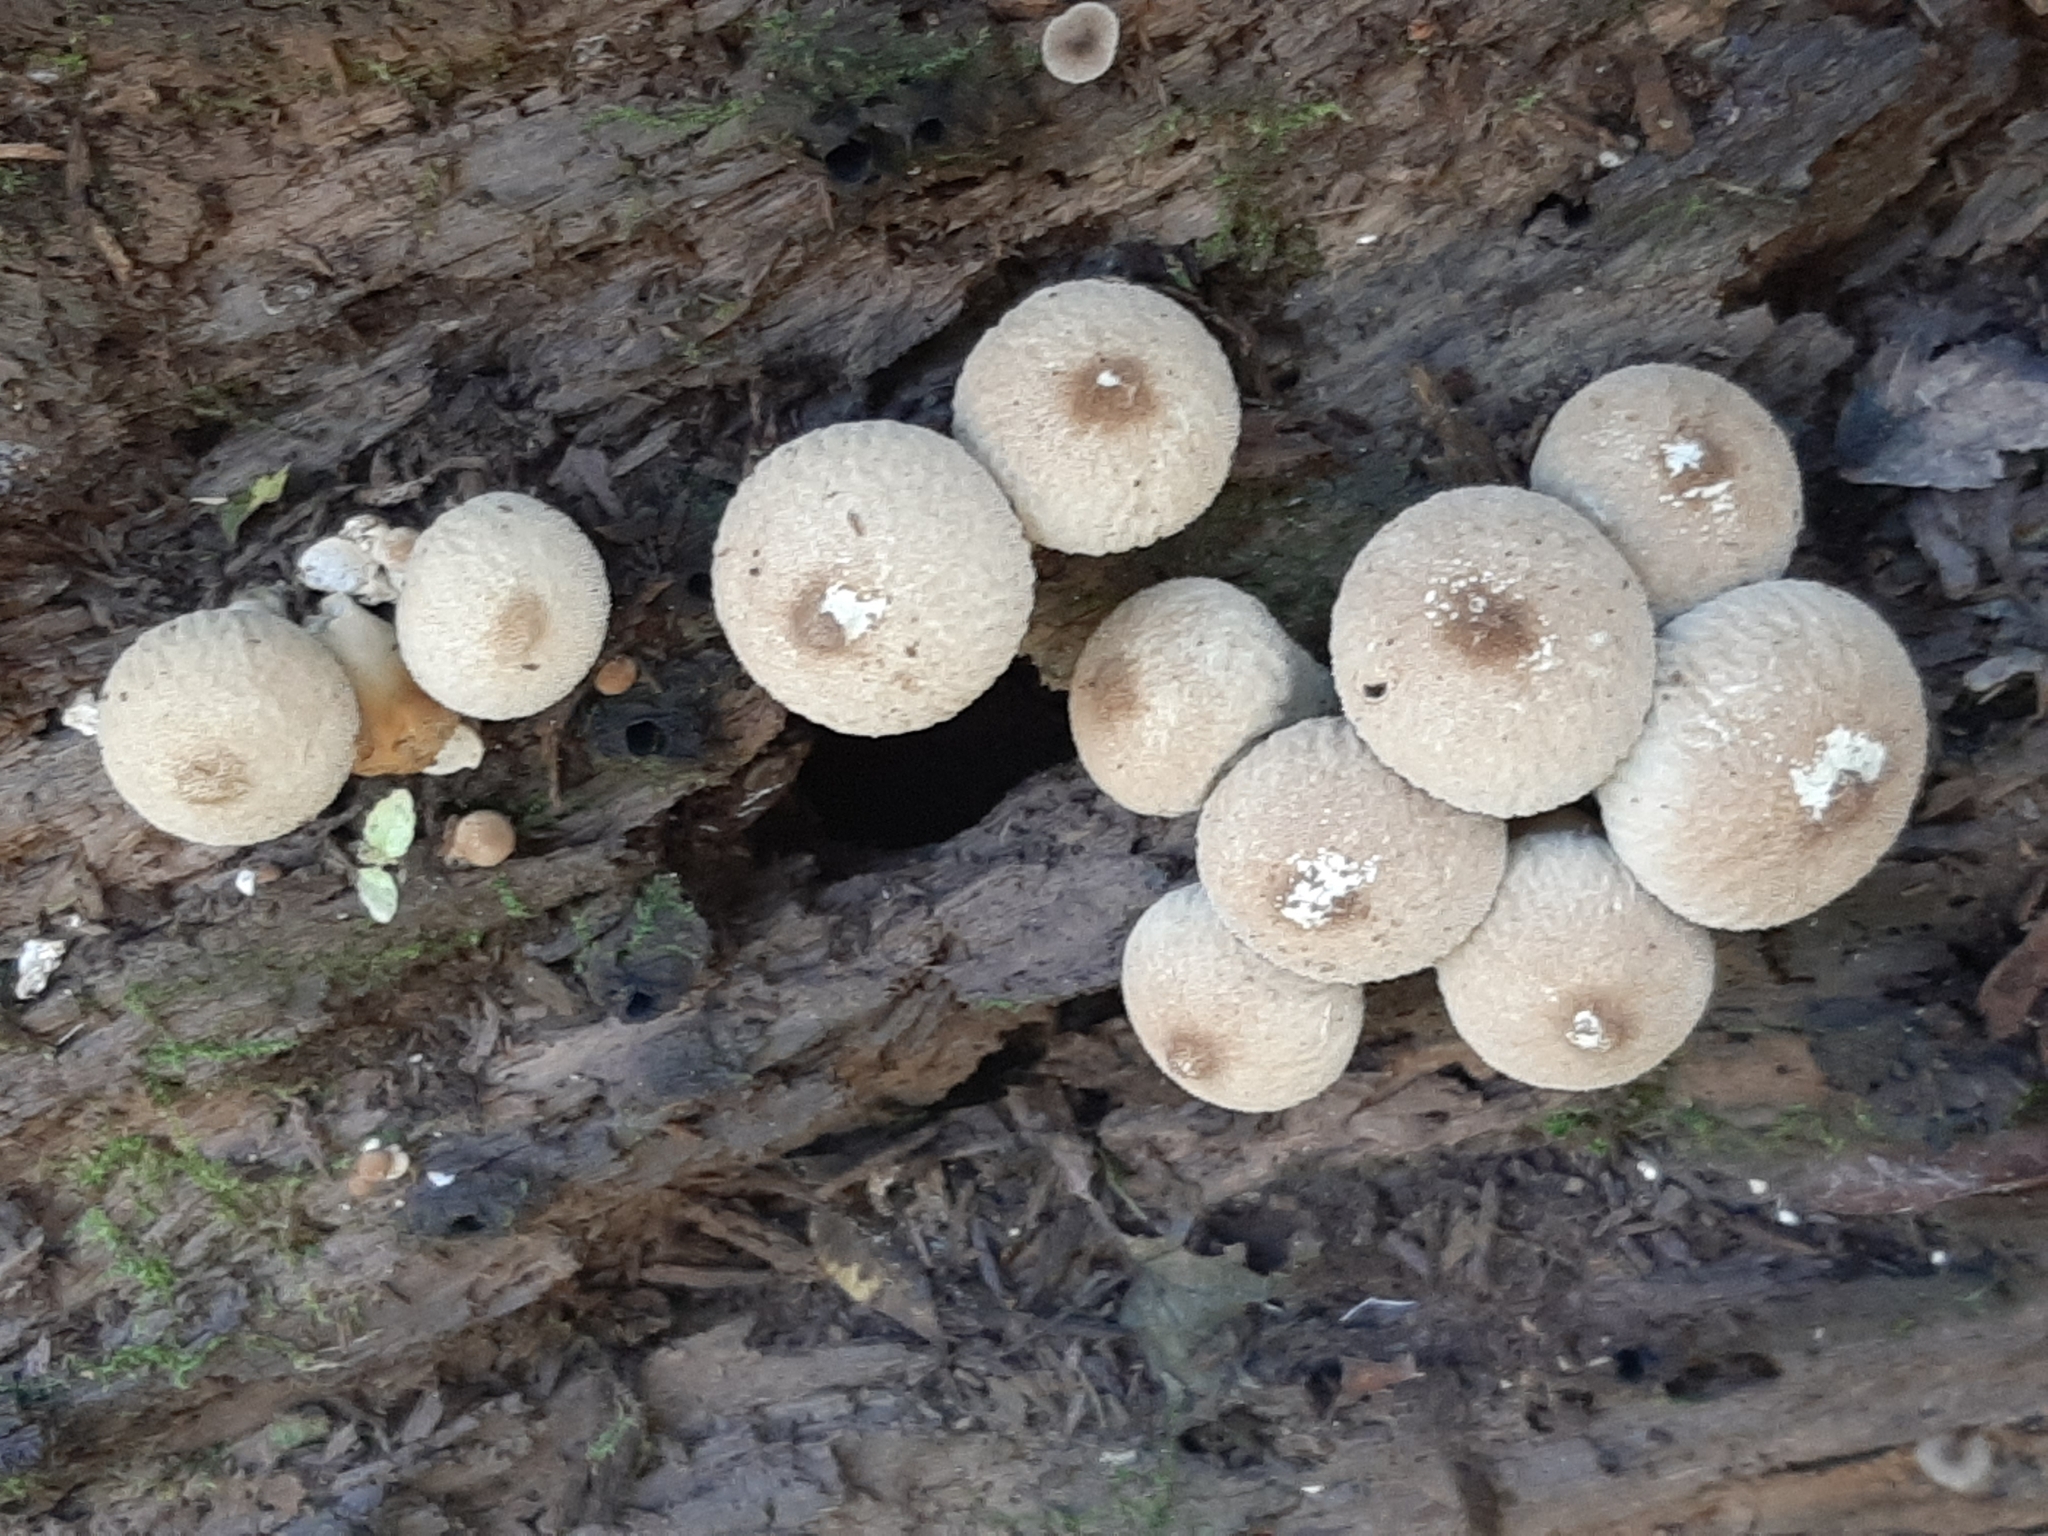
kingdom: Fungi
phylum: Basidiomycota
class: Agaricomycetes
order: Agaricales
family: Lycoperdaceae
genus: Apioperdon
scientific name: Apioperdon pyriforme
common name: Pear-shaped puffball
